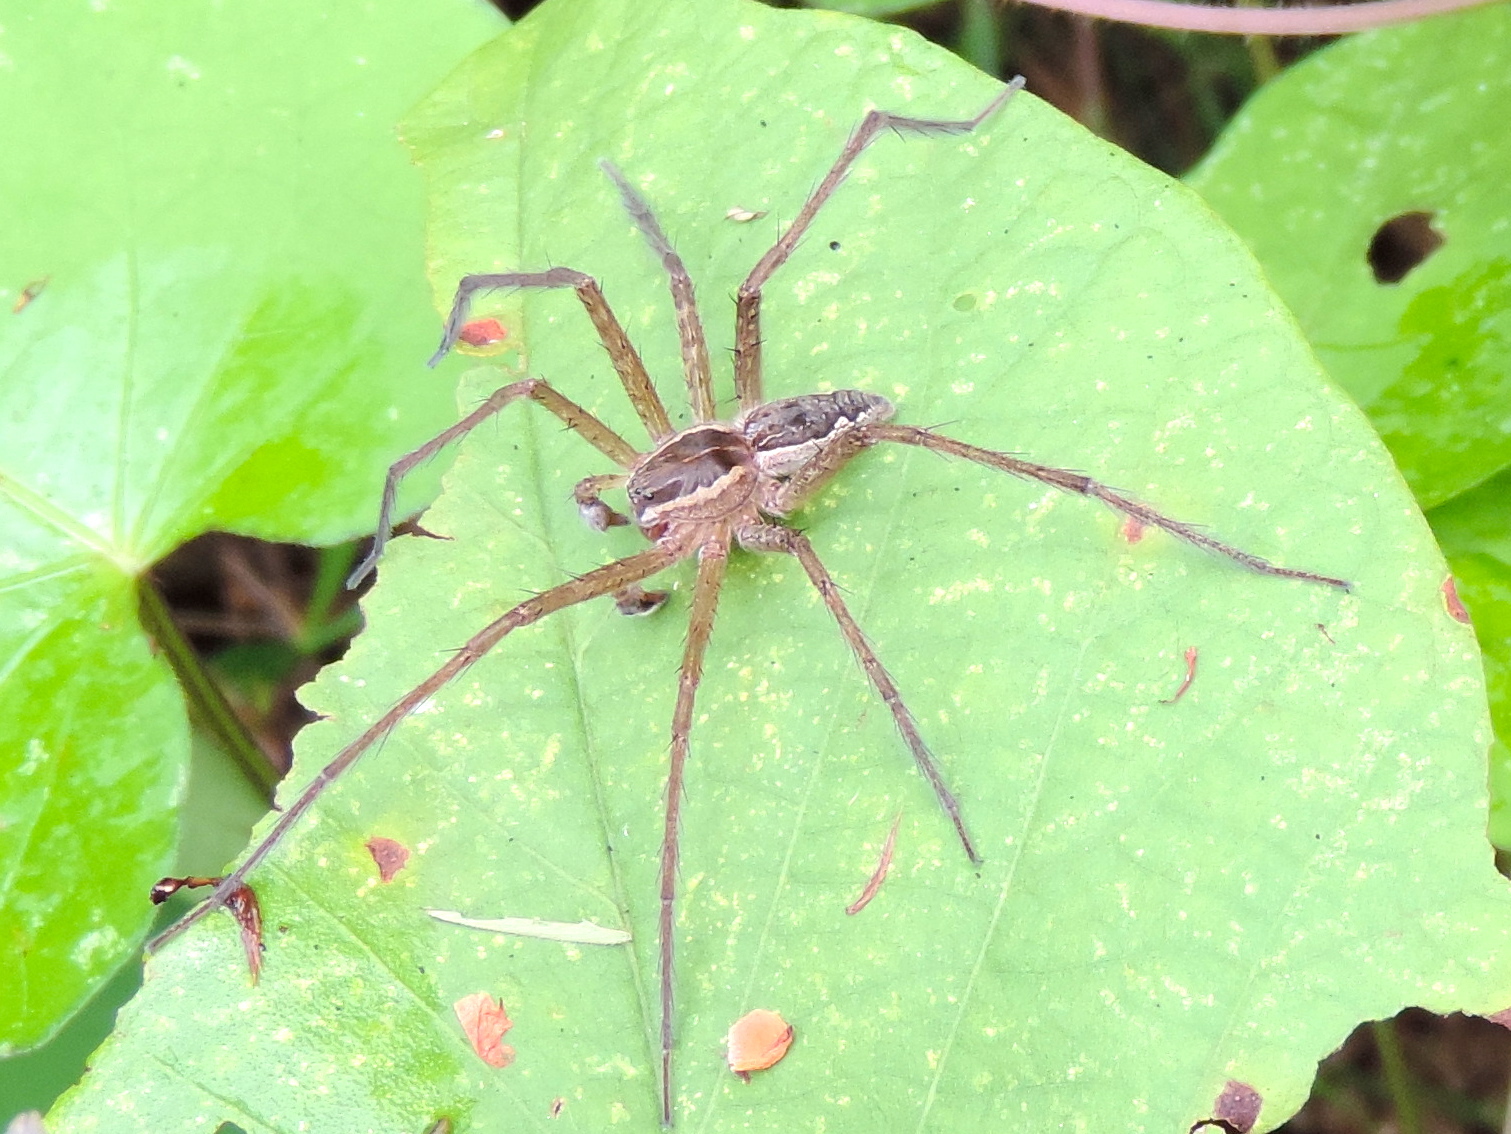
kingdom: Animalia
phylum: Arthropoda
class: Arachnida
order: Araneae
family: Pisauridae
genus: Tinus
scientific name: Tinus
